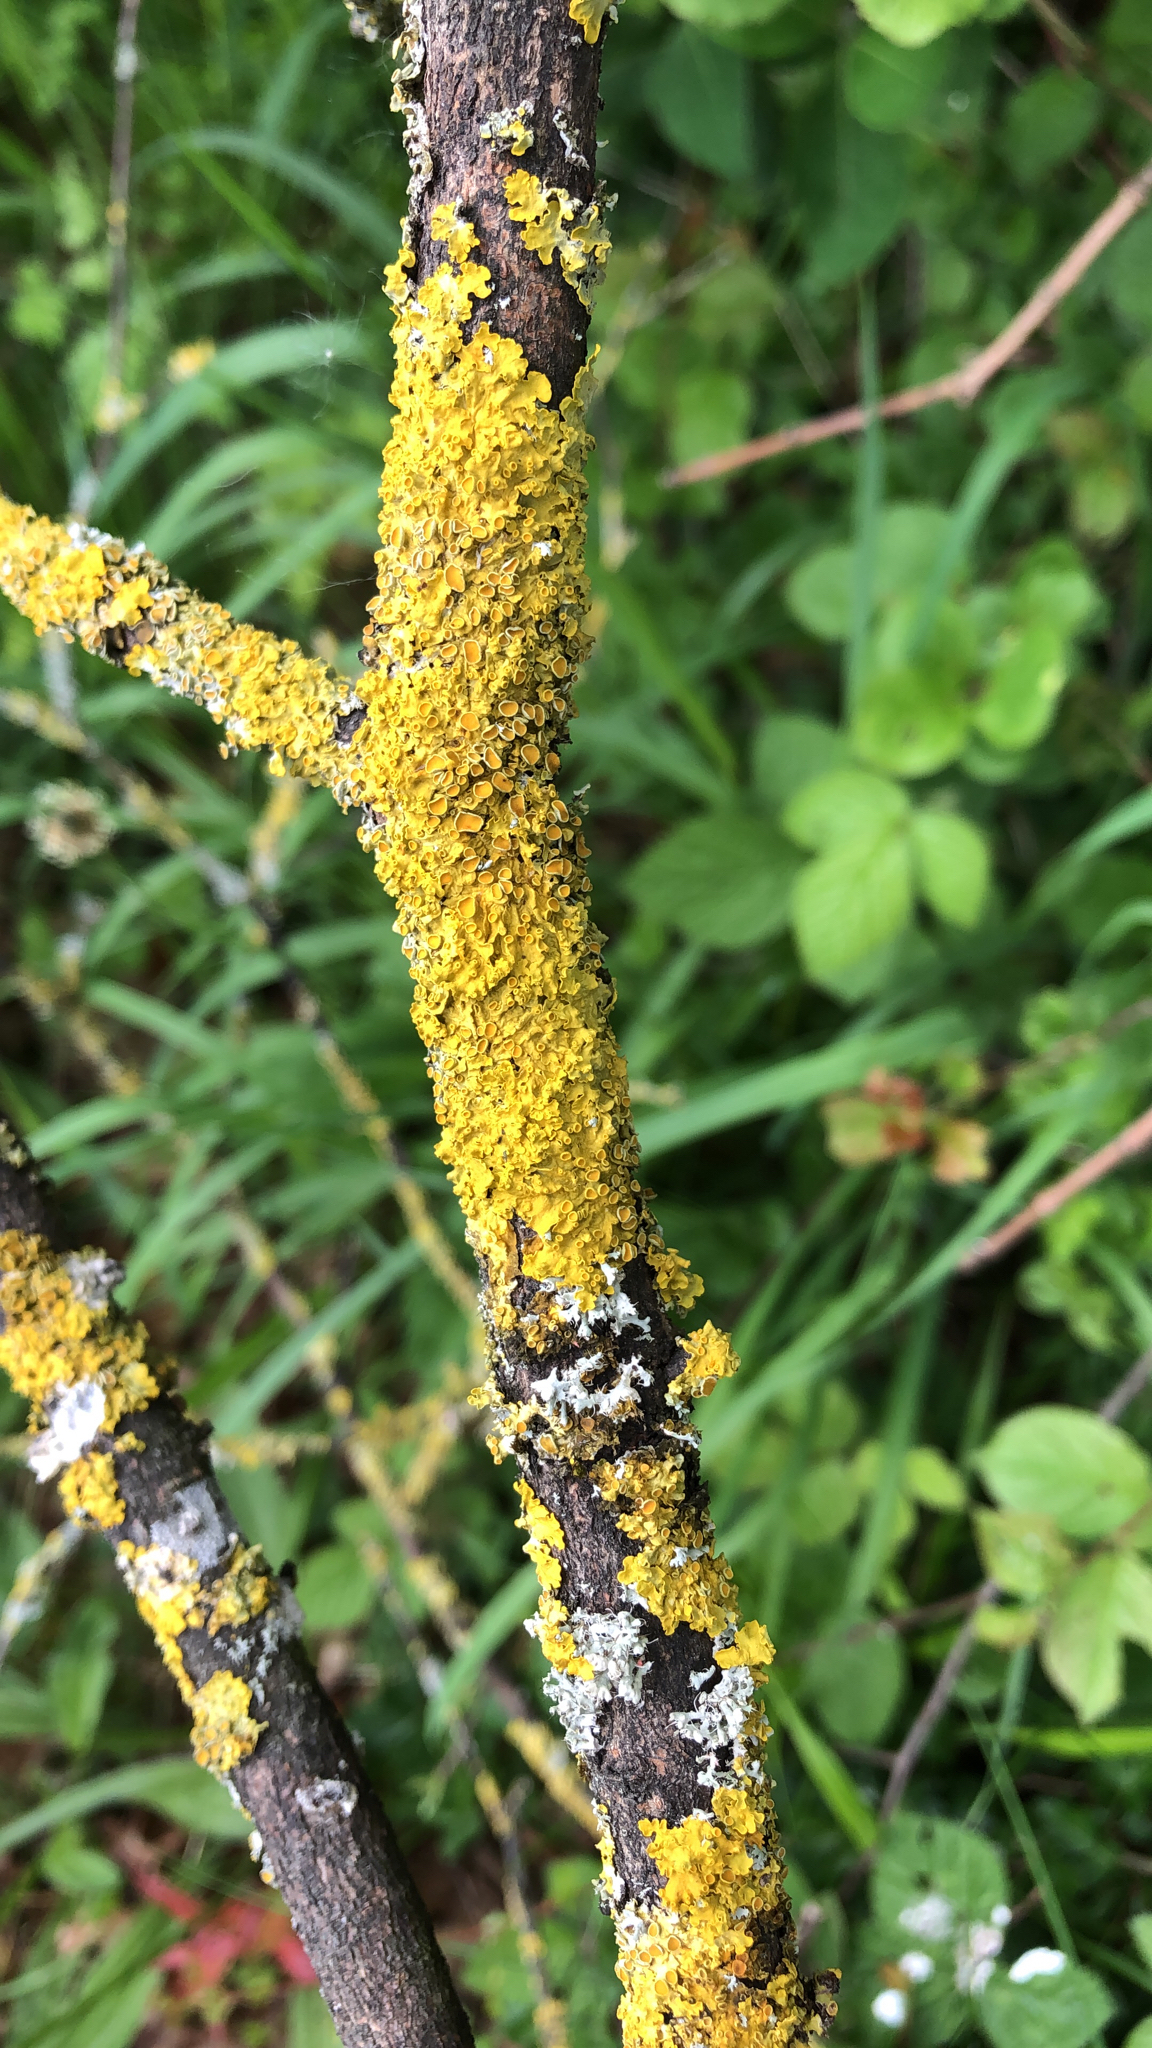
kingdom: Fungi
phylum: Ascomycota
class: Lecanoromycetes
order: Teloschistales
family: Teloschistaceae
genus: Xanthoria
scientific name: Xanthoria parietina
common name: Common orange lichen
